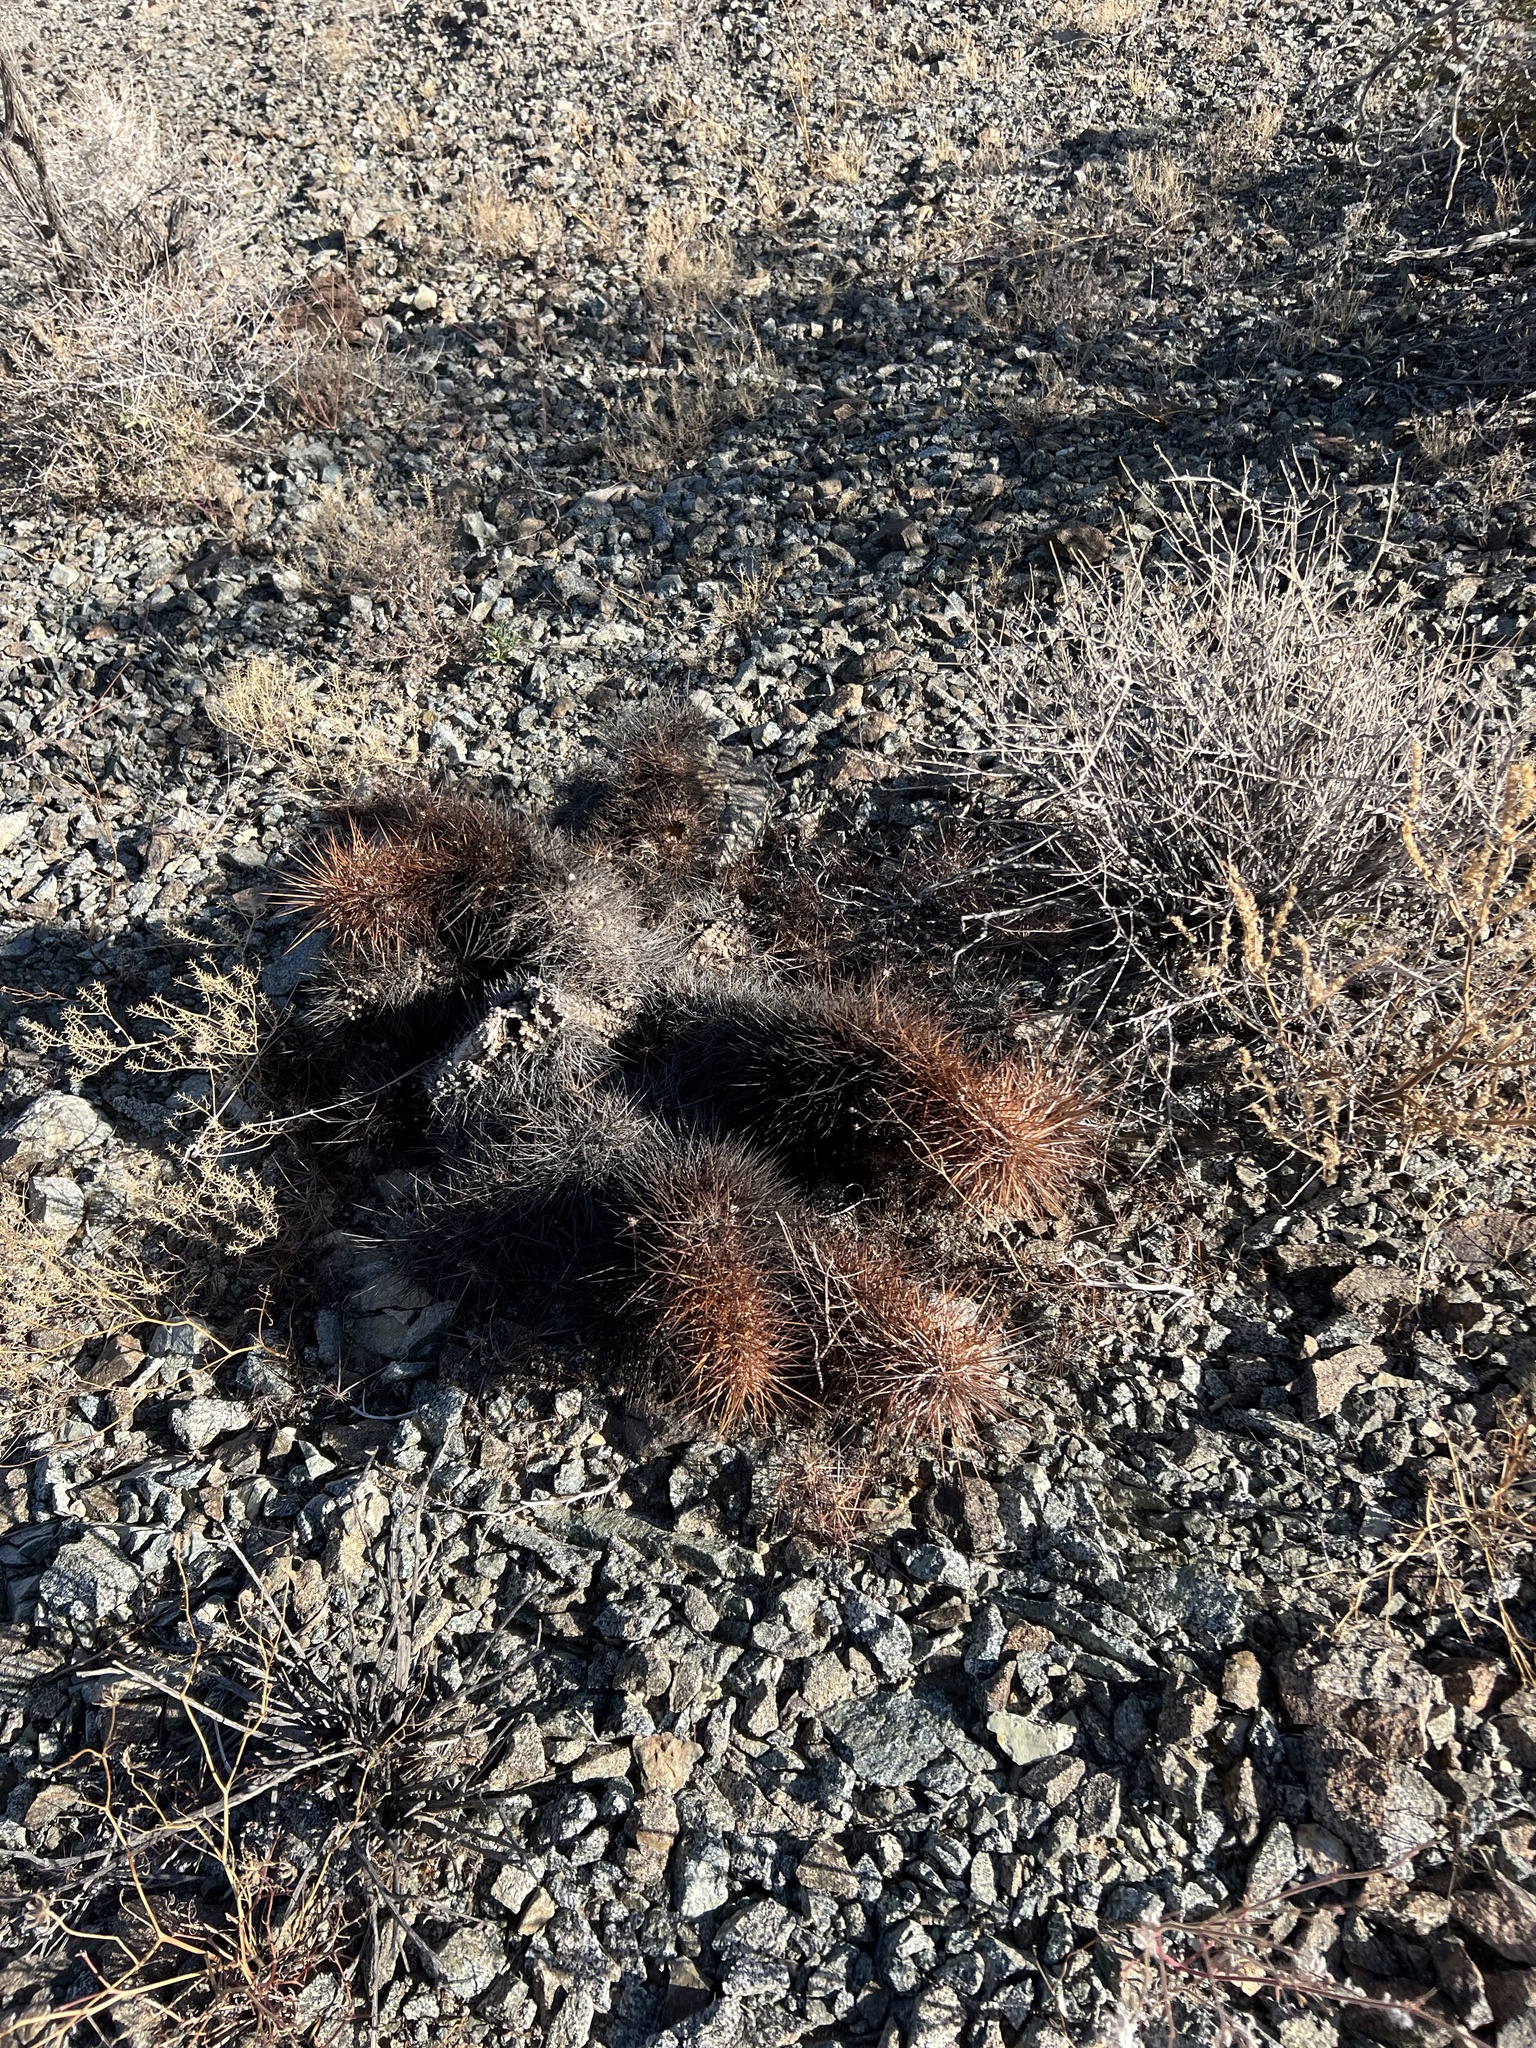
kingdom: Plantae
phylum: Tracheophyta
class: Magnoliopsida
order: Caryophyllales
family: Cactaceae
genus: Echinocereus
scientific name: Echinocereus engelmannii
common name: Engelmann's hedgehog cactus
